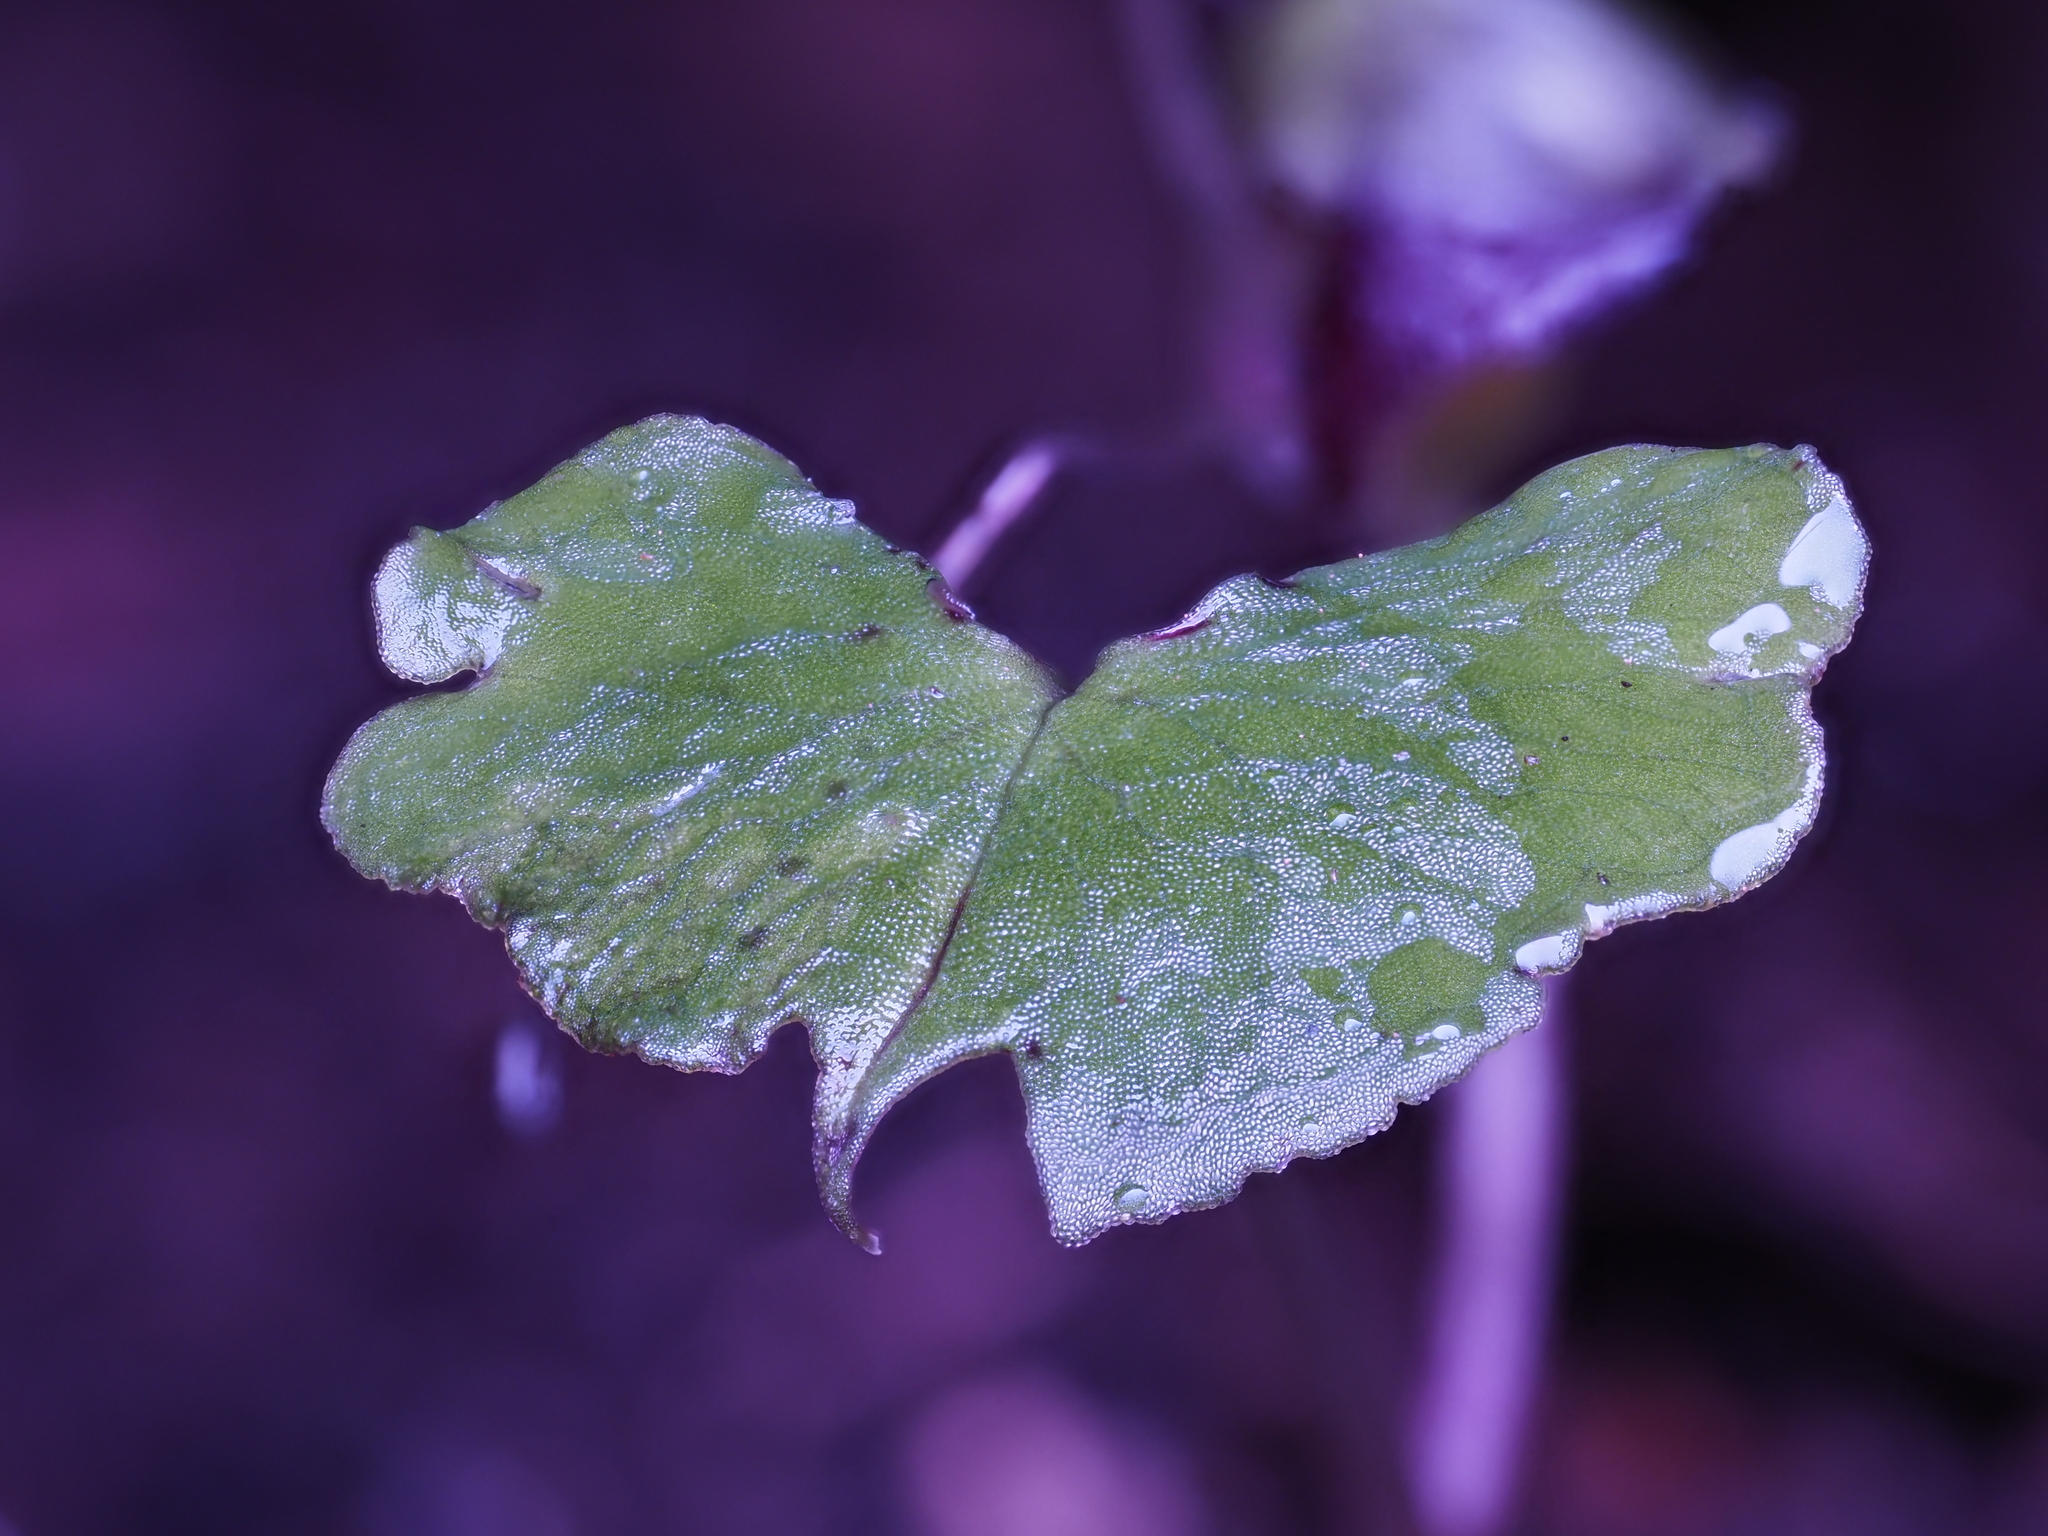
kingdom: Plantae
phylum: Tracheophyta
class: Liliopsida
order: Asparagales
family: Orchidaceae
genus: Corybas
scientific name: Corybas vitreus
